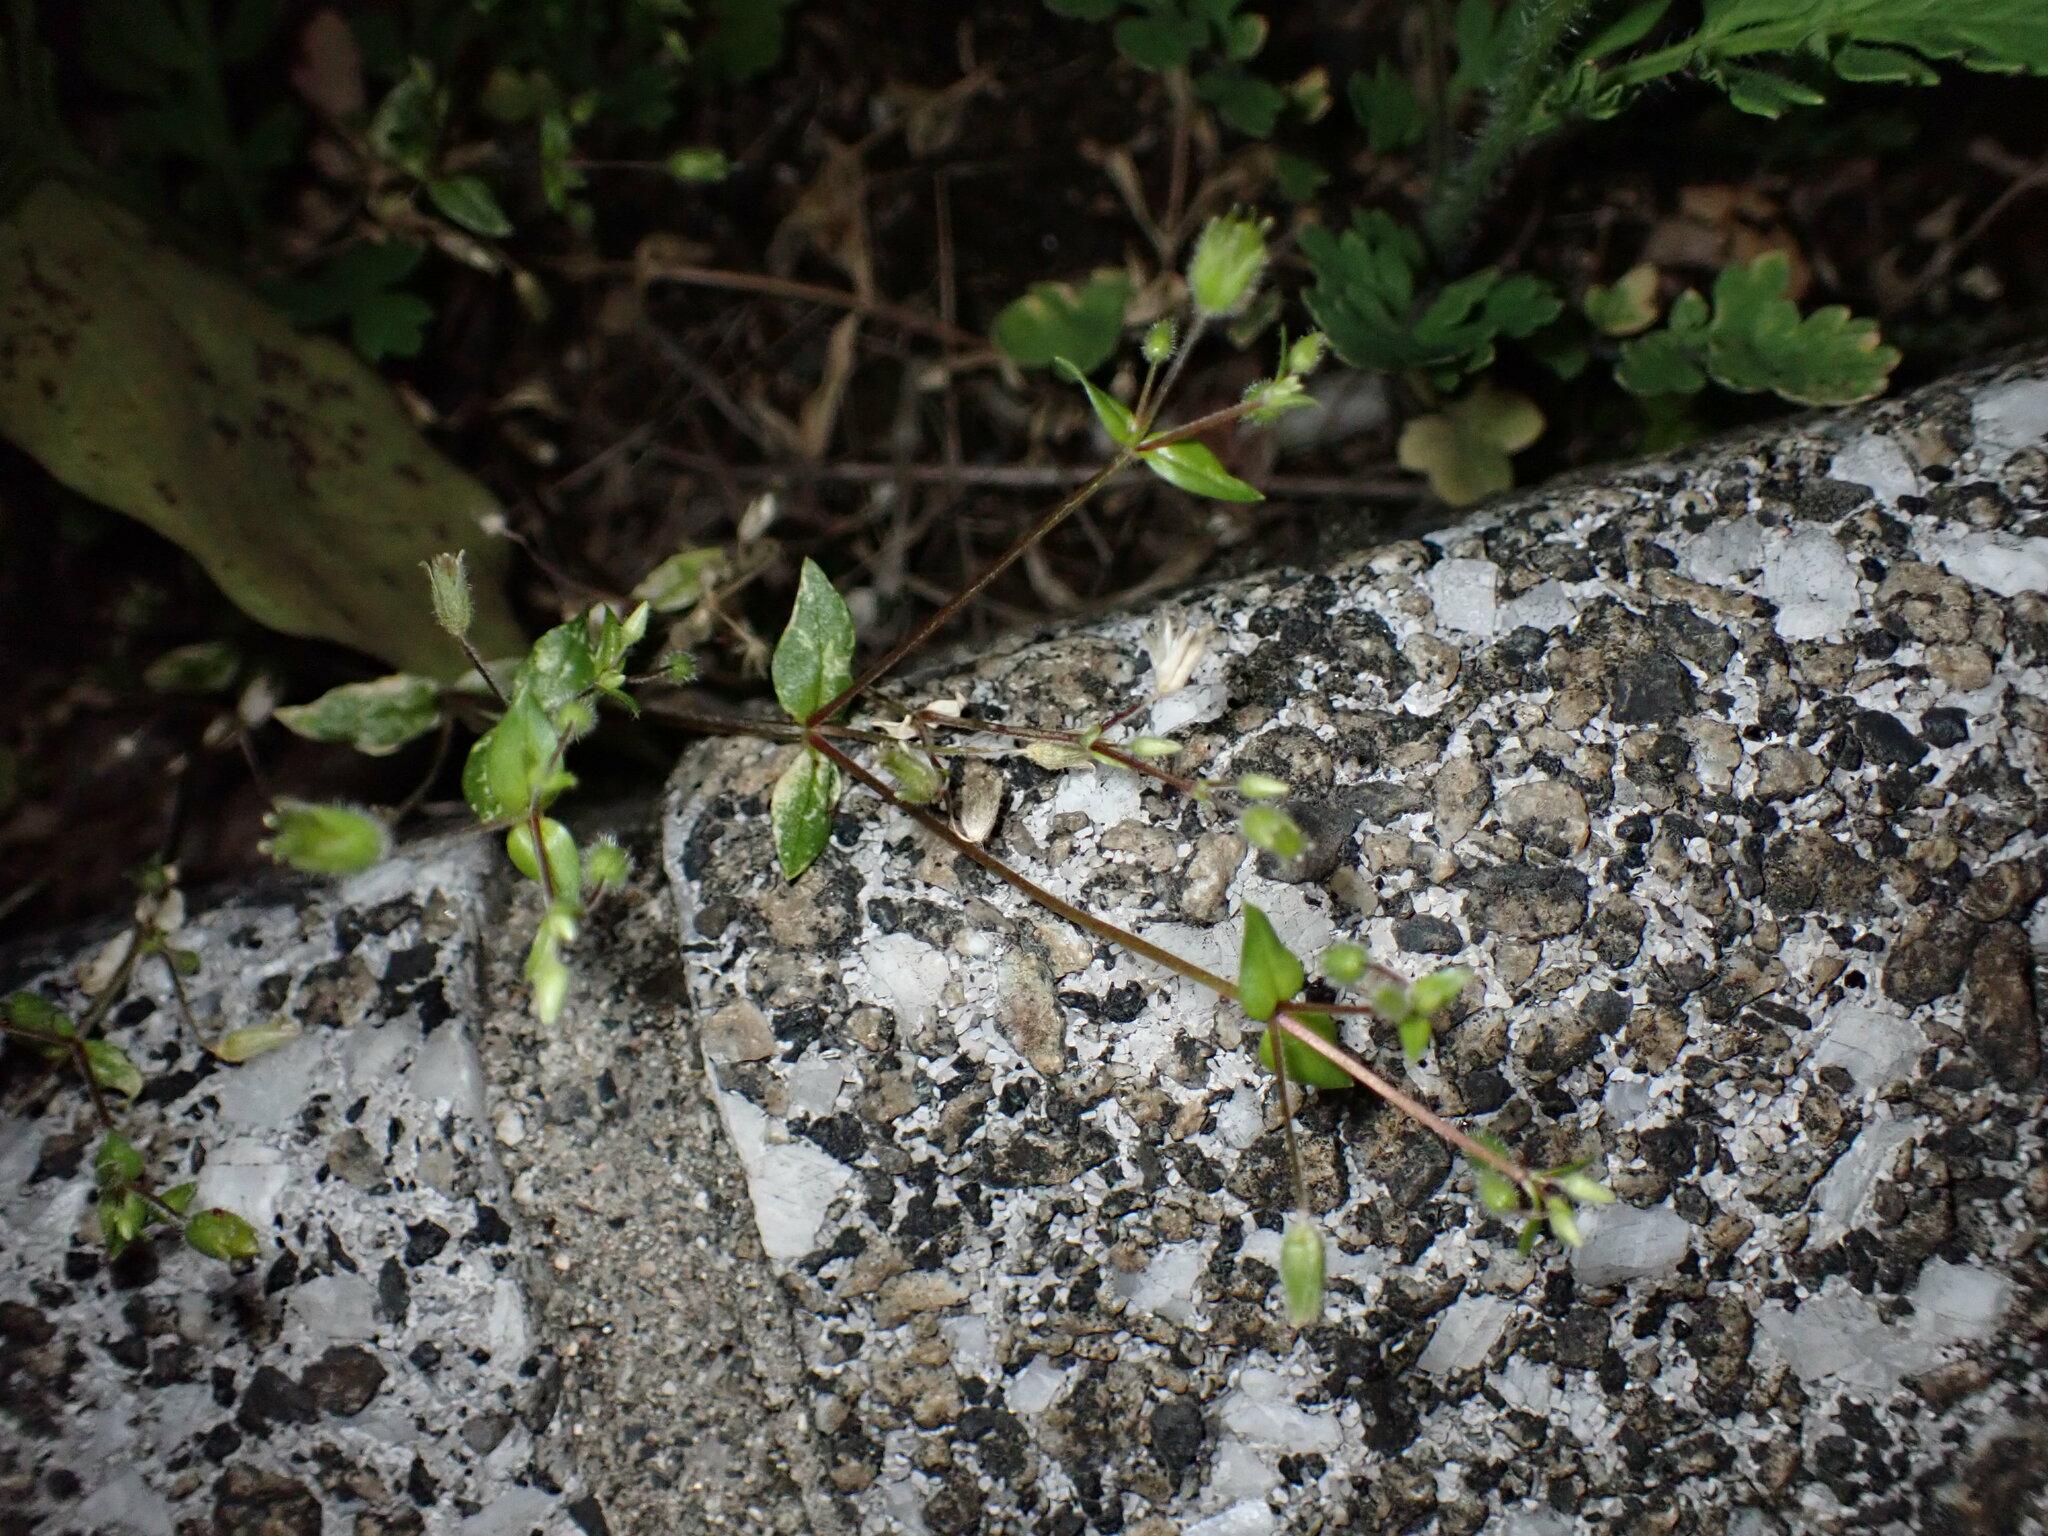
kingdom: Plantae
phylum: Tracheophyta
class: Magnoliopsida
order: Caryophyllales
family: Caryophyllaceae
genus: Stellaria
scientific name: Stellaria apetala
